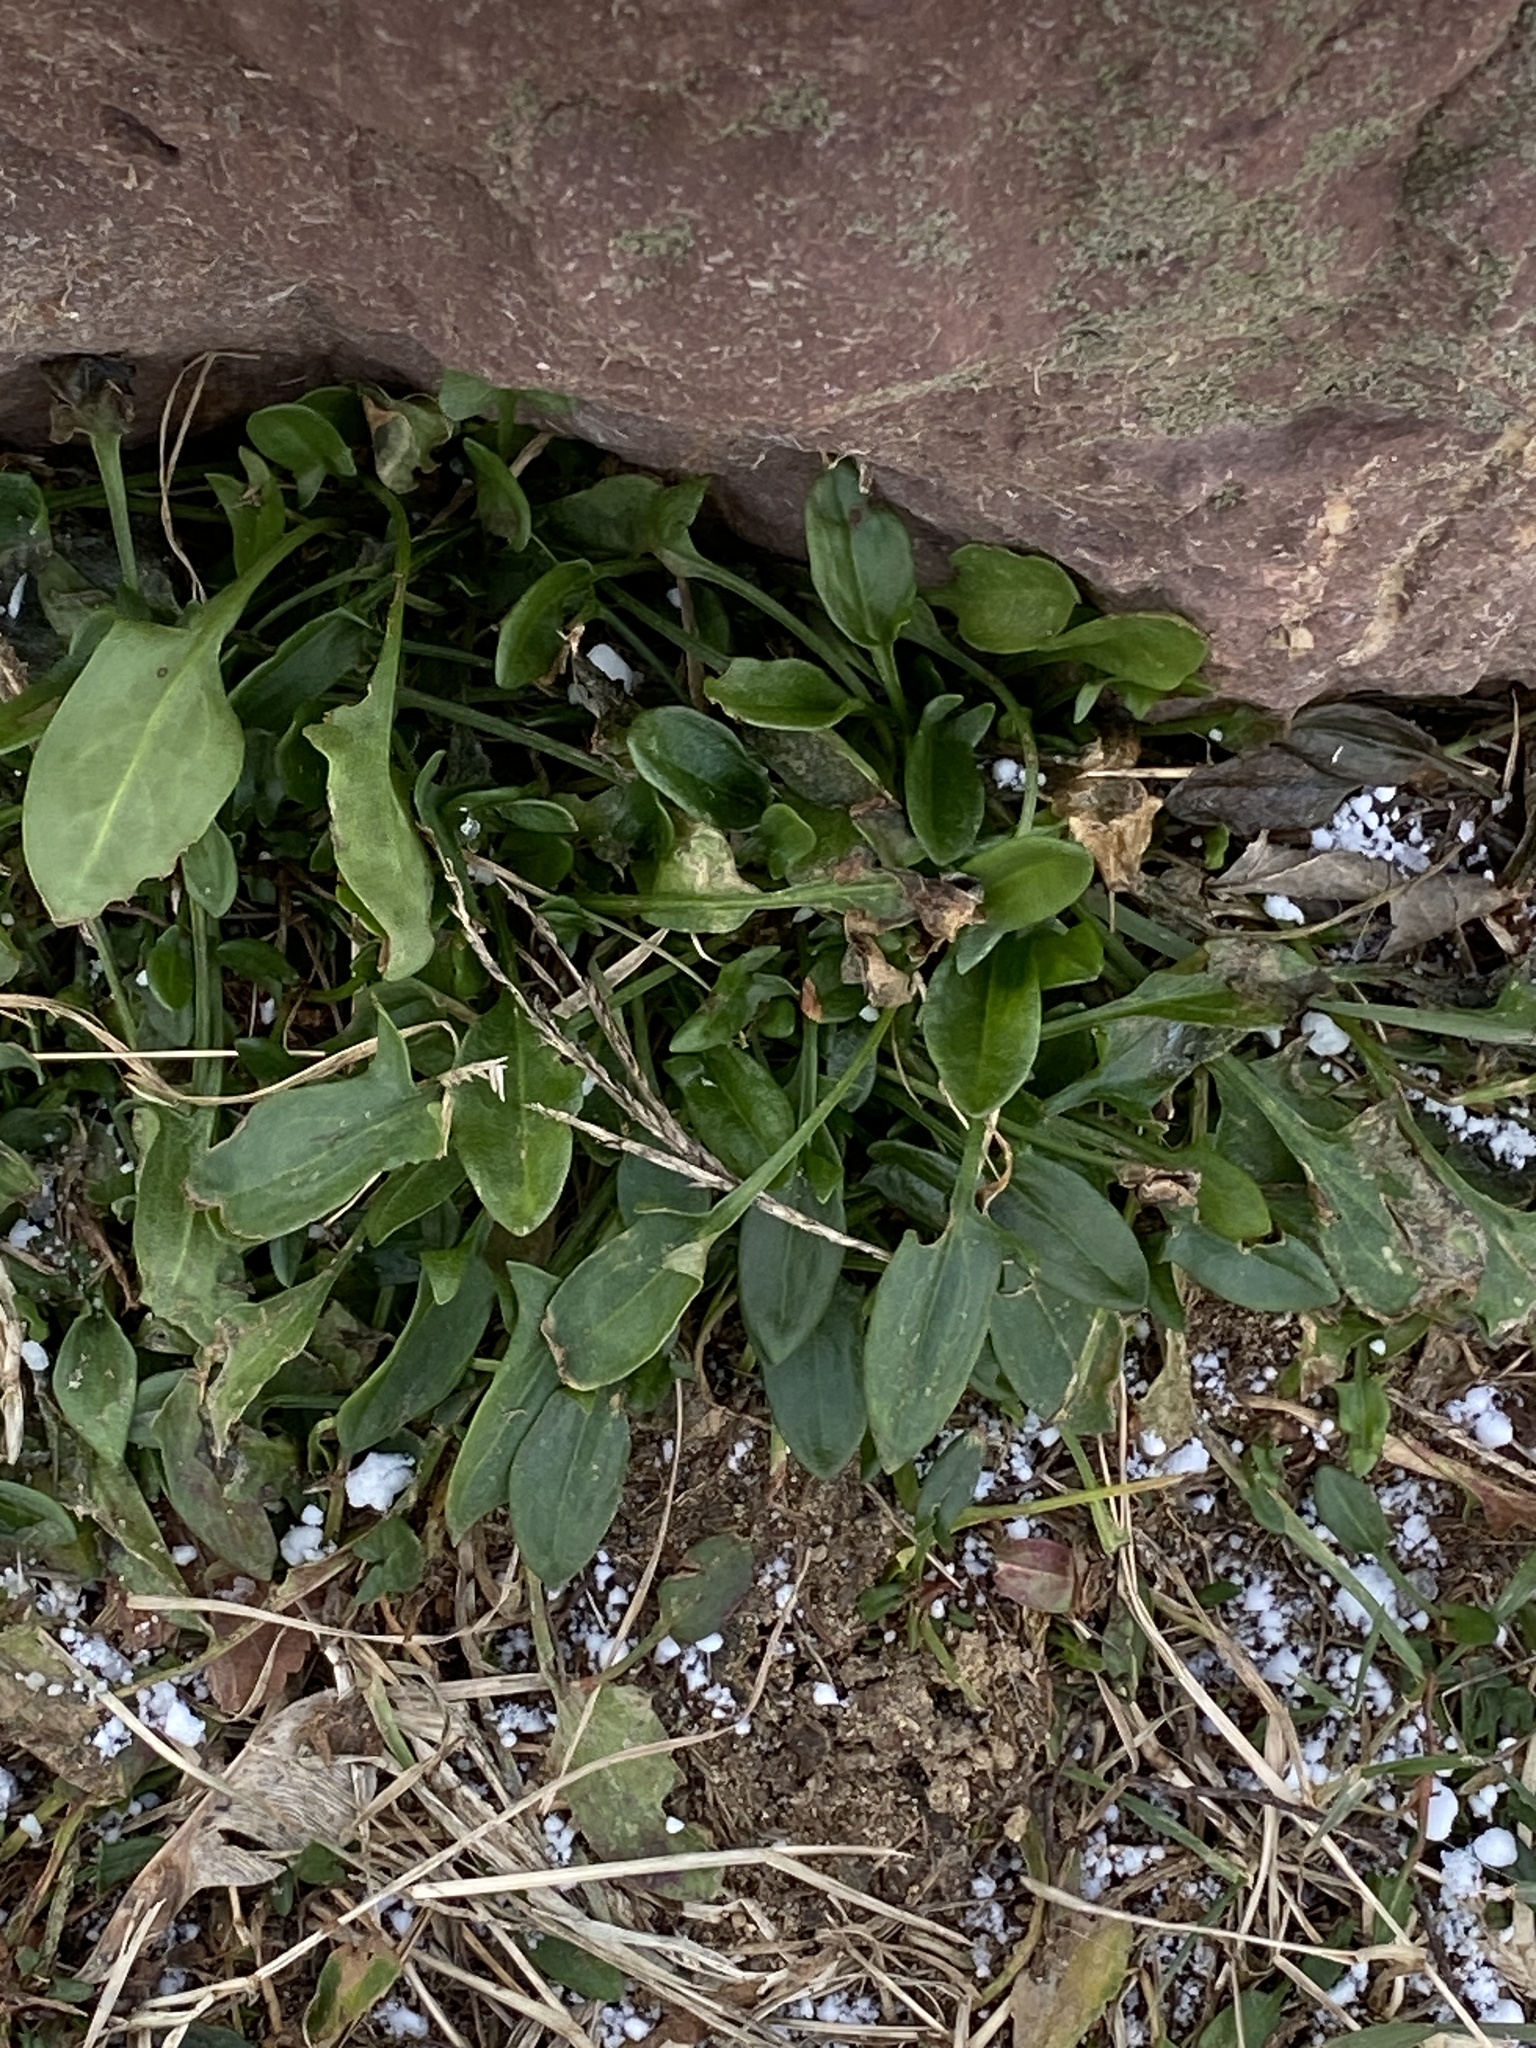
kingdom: Plantae
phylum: Tracheophyta
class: Magnoliopsida
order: Caryophyllales
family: Polygonaceae
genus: Rumex
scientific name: Rumex acetosella
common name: Common sheep sorrel
